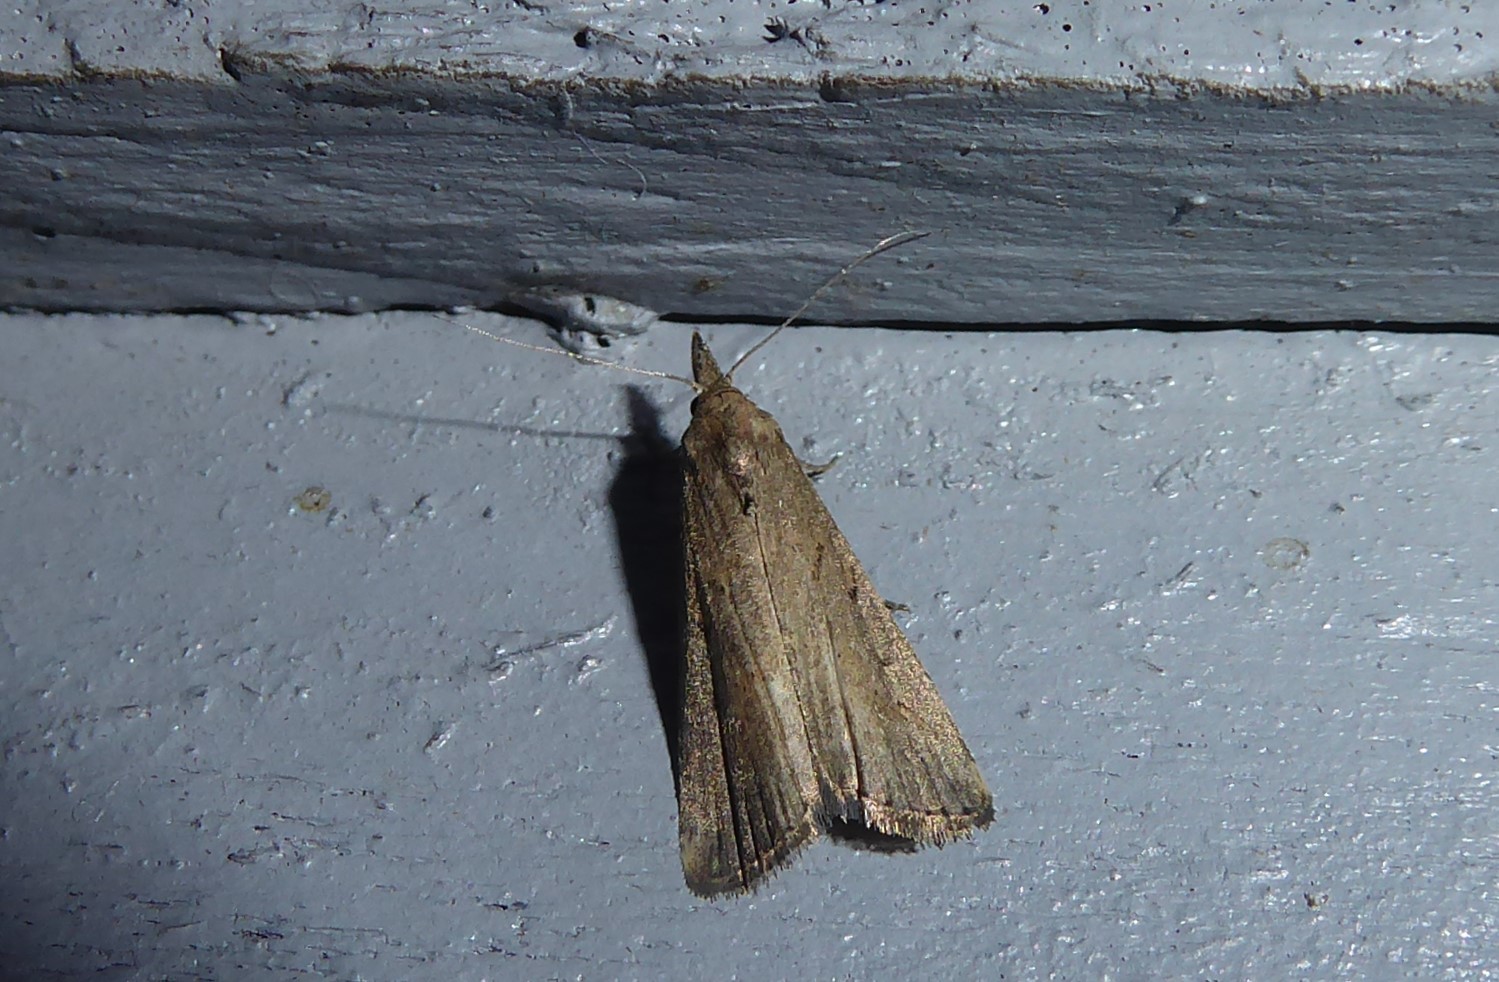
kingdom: Animalia
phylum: Arthropoda
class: Insecta
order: Lepidoptera
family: Erebidae
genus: Schrankia
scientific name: Schrankia costaestrigalis
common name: Pinion-streaked snout
